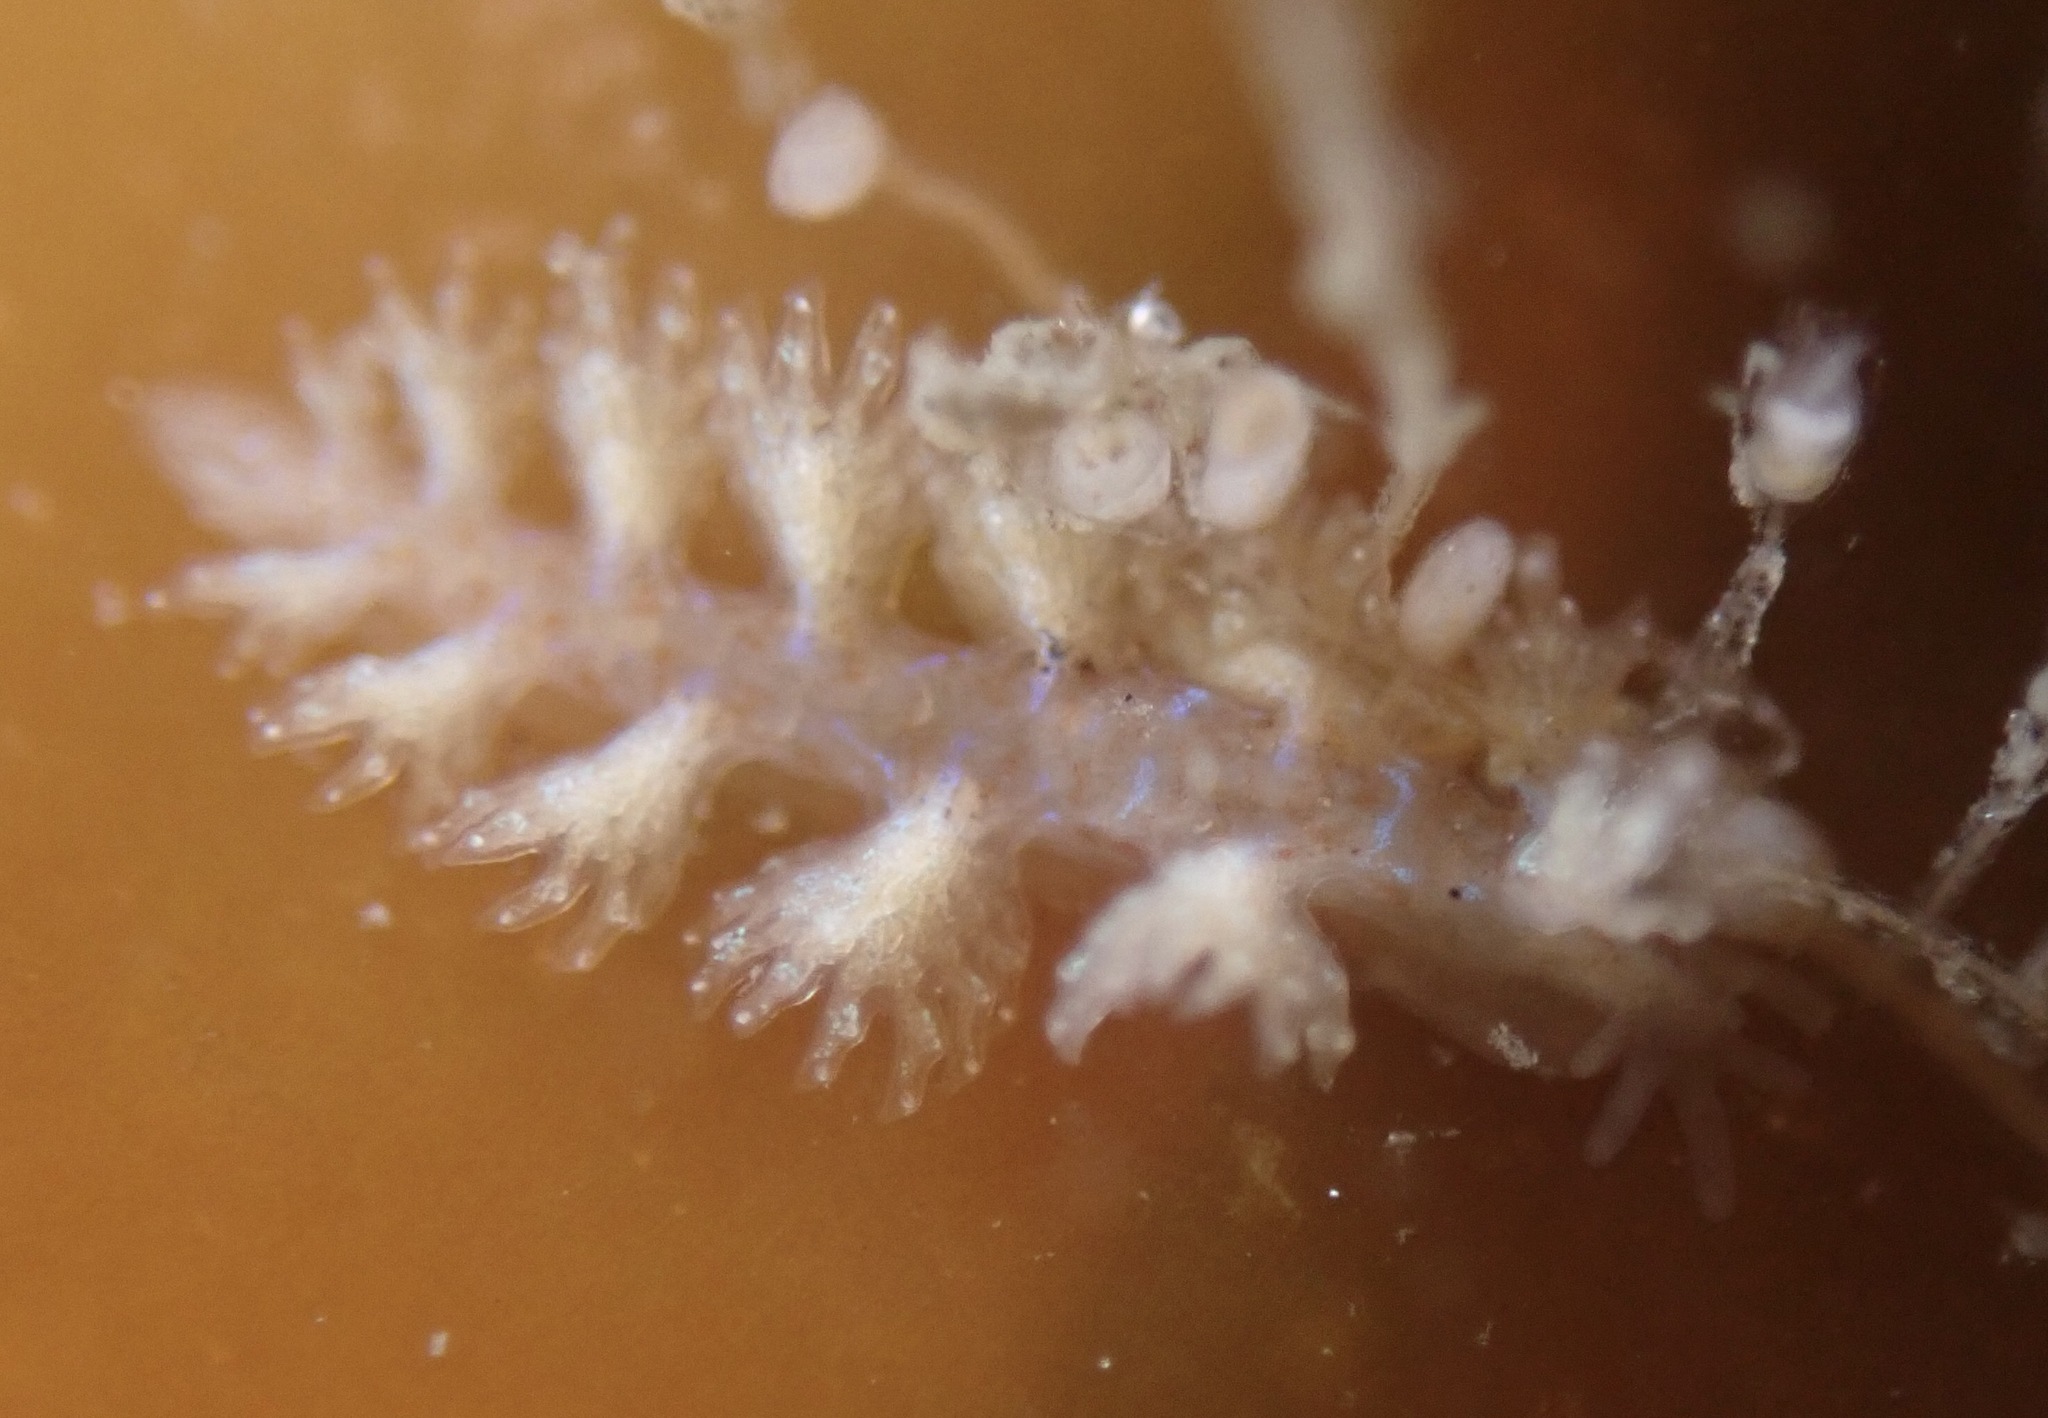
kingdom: Animalia
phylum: Mollusca
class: Gastropoda
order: Nudibranchia
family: Hancockiidae
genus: Hancockia
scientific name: Hancockia californica
